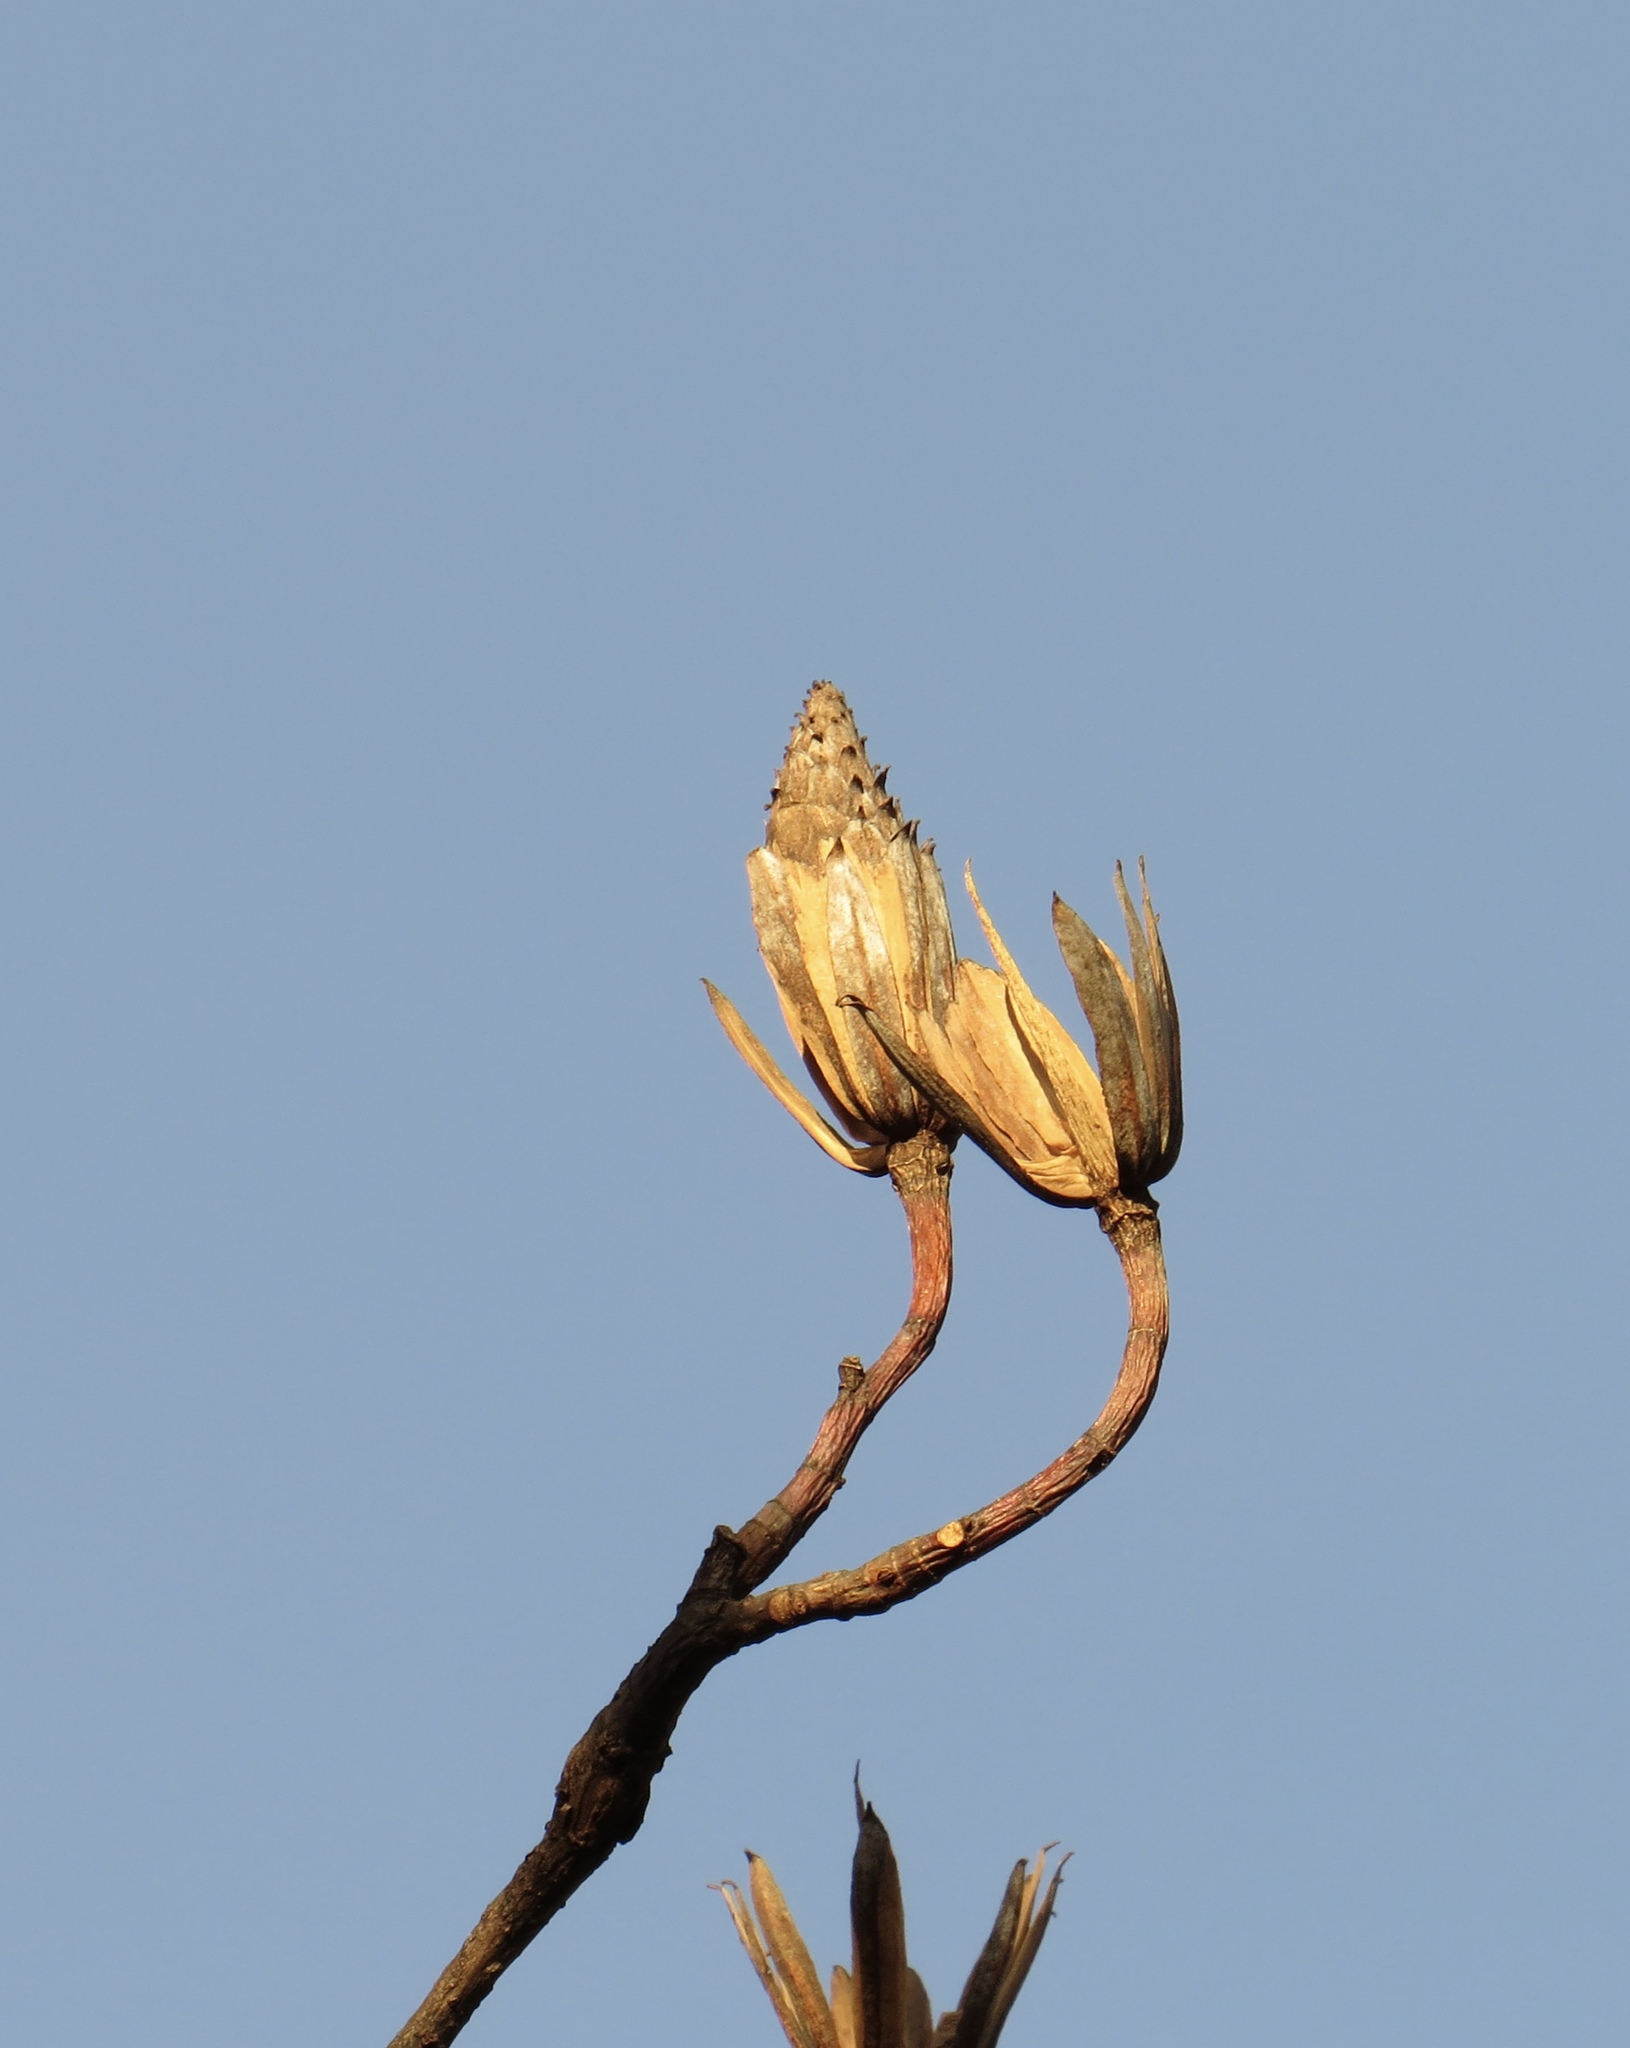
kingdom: Plantae
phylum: Tracheophyta
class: Magnoliopsida
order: Magnoliales
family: Magnoliaceae
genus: Liriodendron
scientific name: Liriodendron tulipifera
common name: Tulip tree
